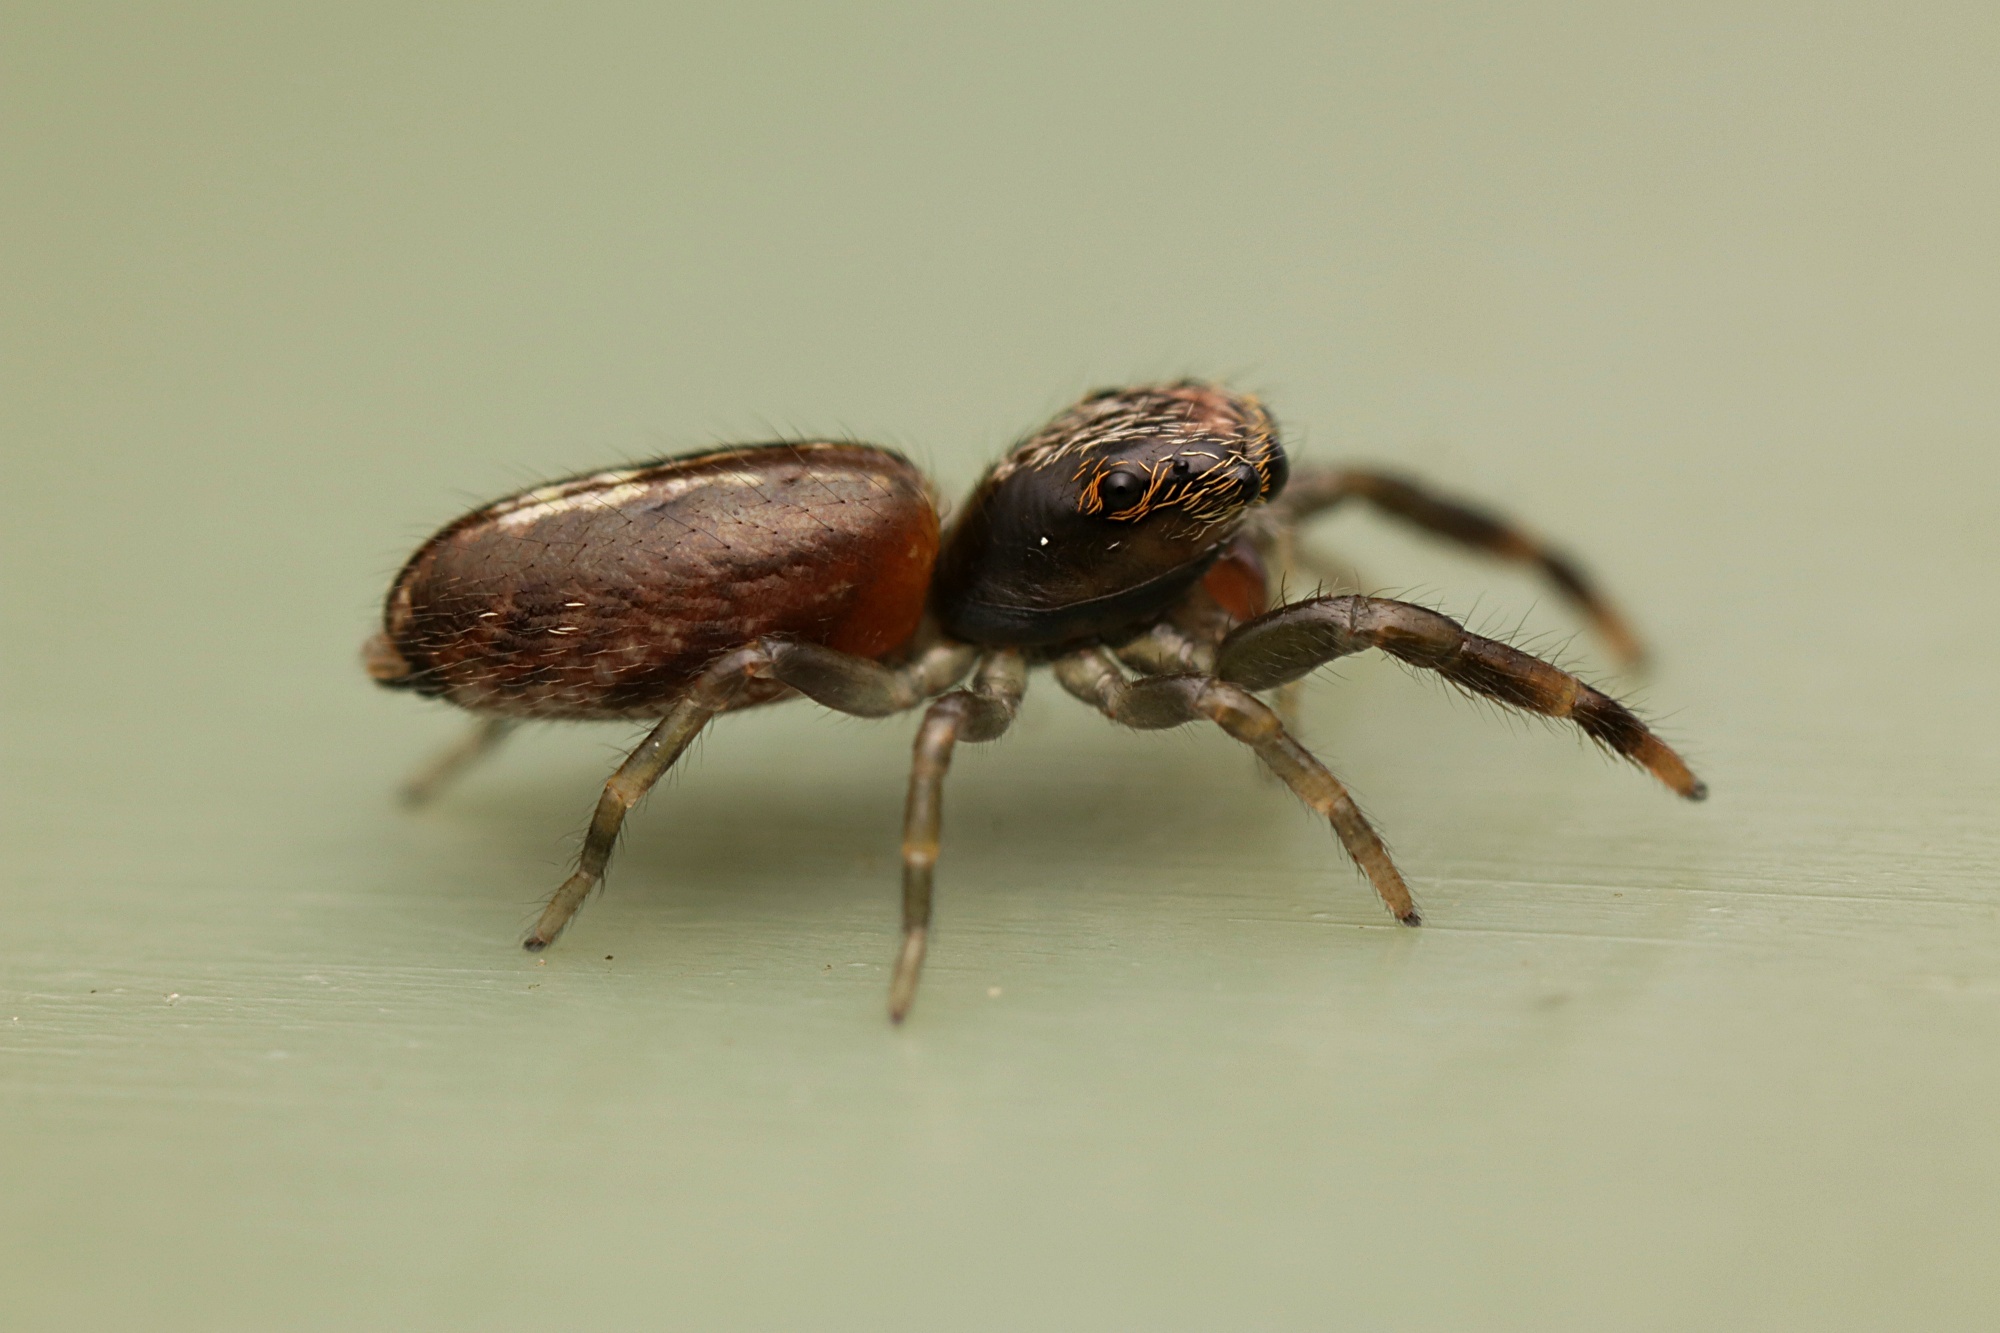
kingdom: Animalia
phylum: Arthropoda
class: Arachnida
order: Araneae
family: Salticidae
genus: Trite
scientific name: Trite planiceps
